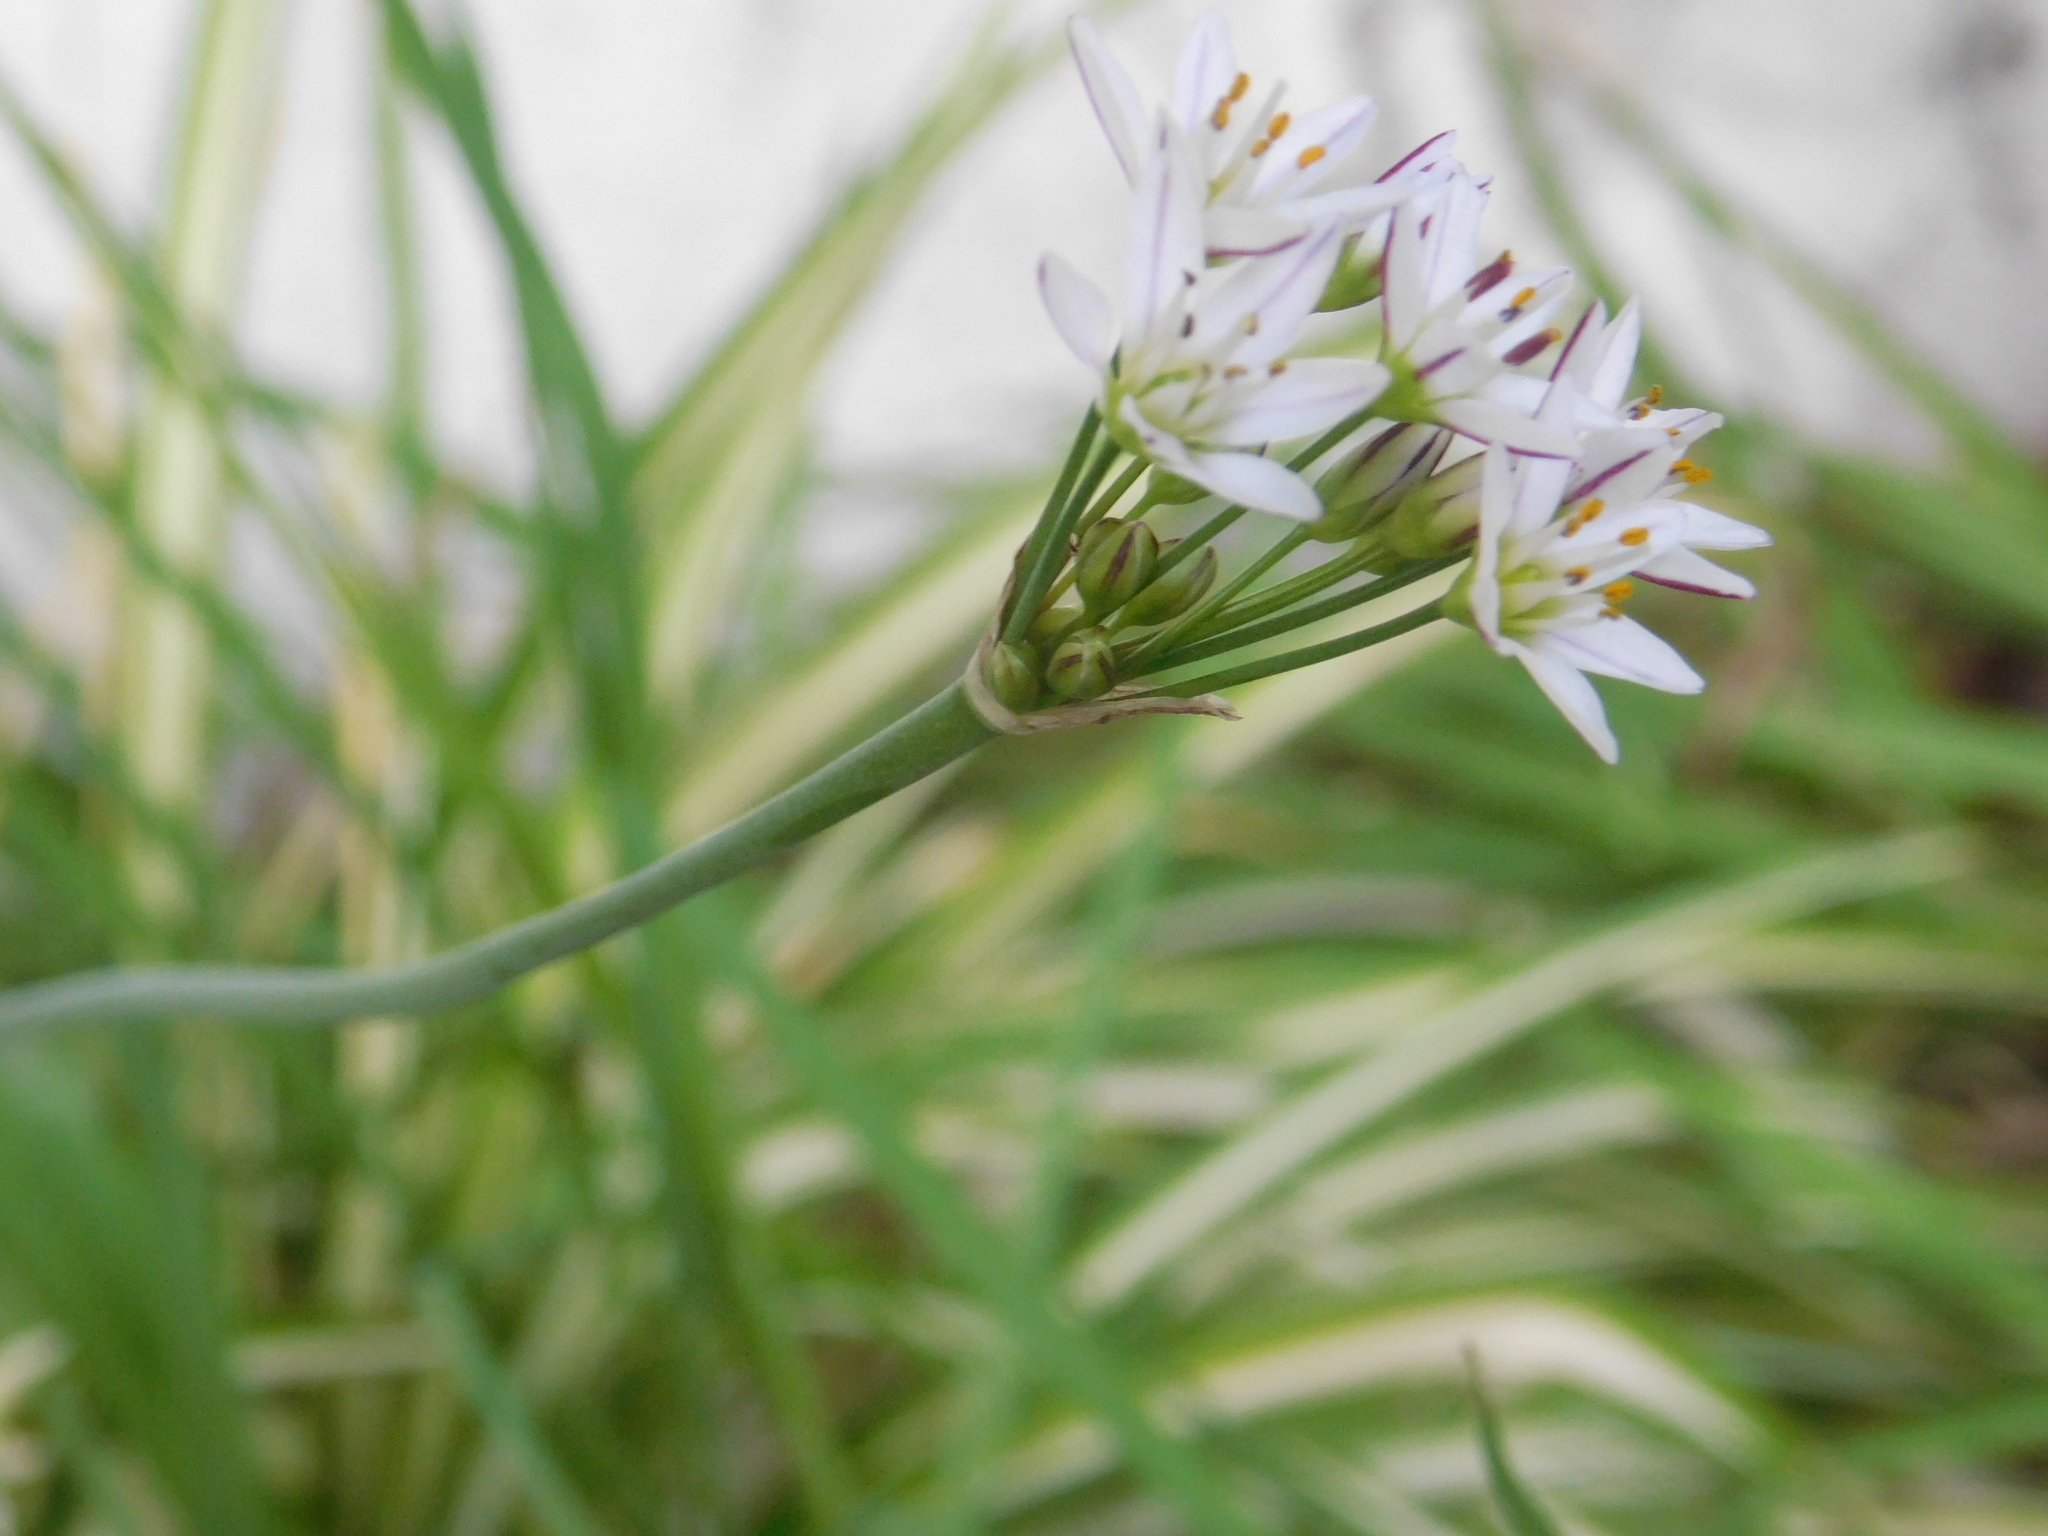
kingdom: Plantae
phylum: Tracheophyta
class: Liliopsida
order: Asparagales
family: Amaryllidaceae
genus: Nothoscordum
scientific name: Nothoscordum gracile
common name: Slender false garlic
